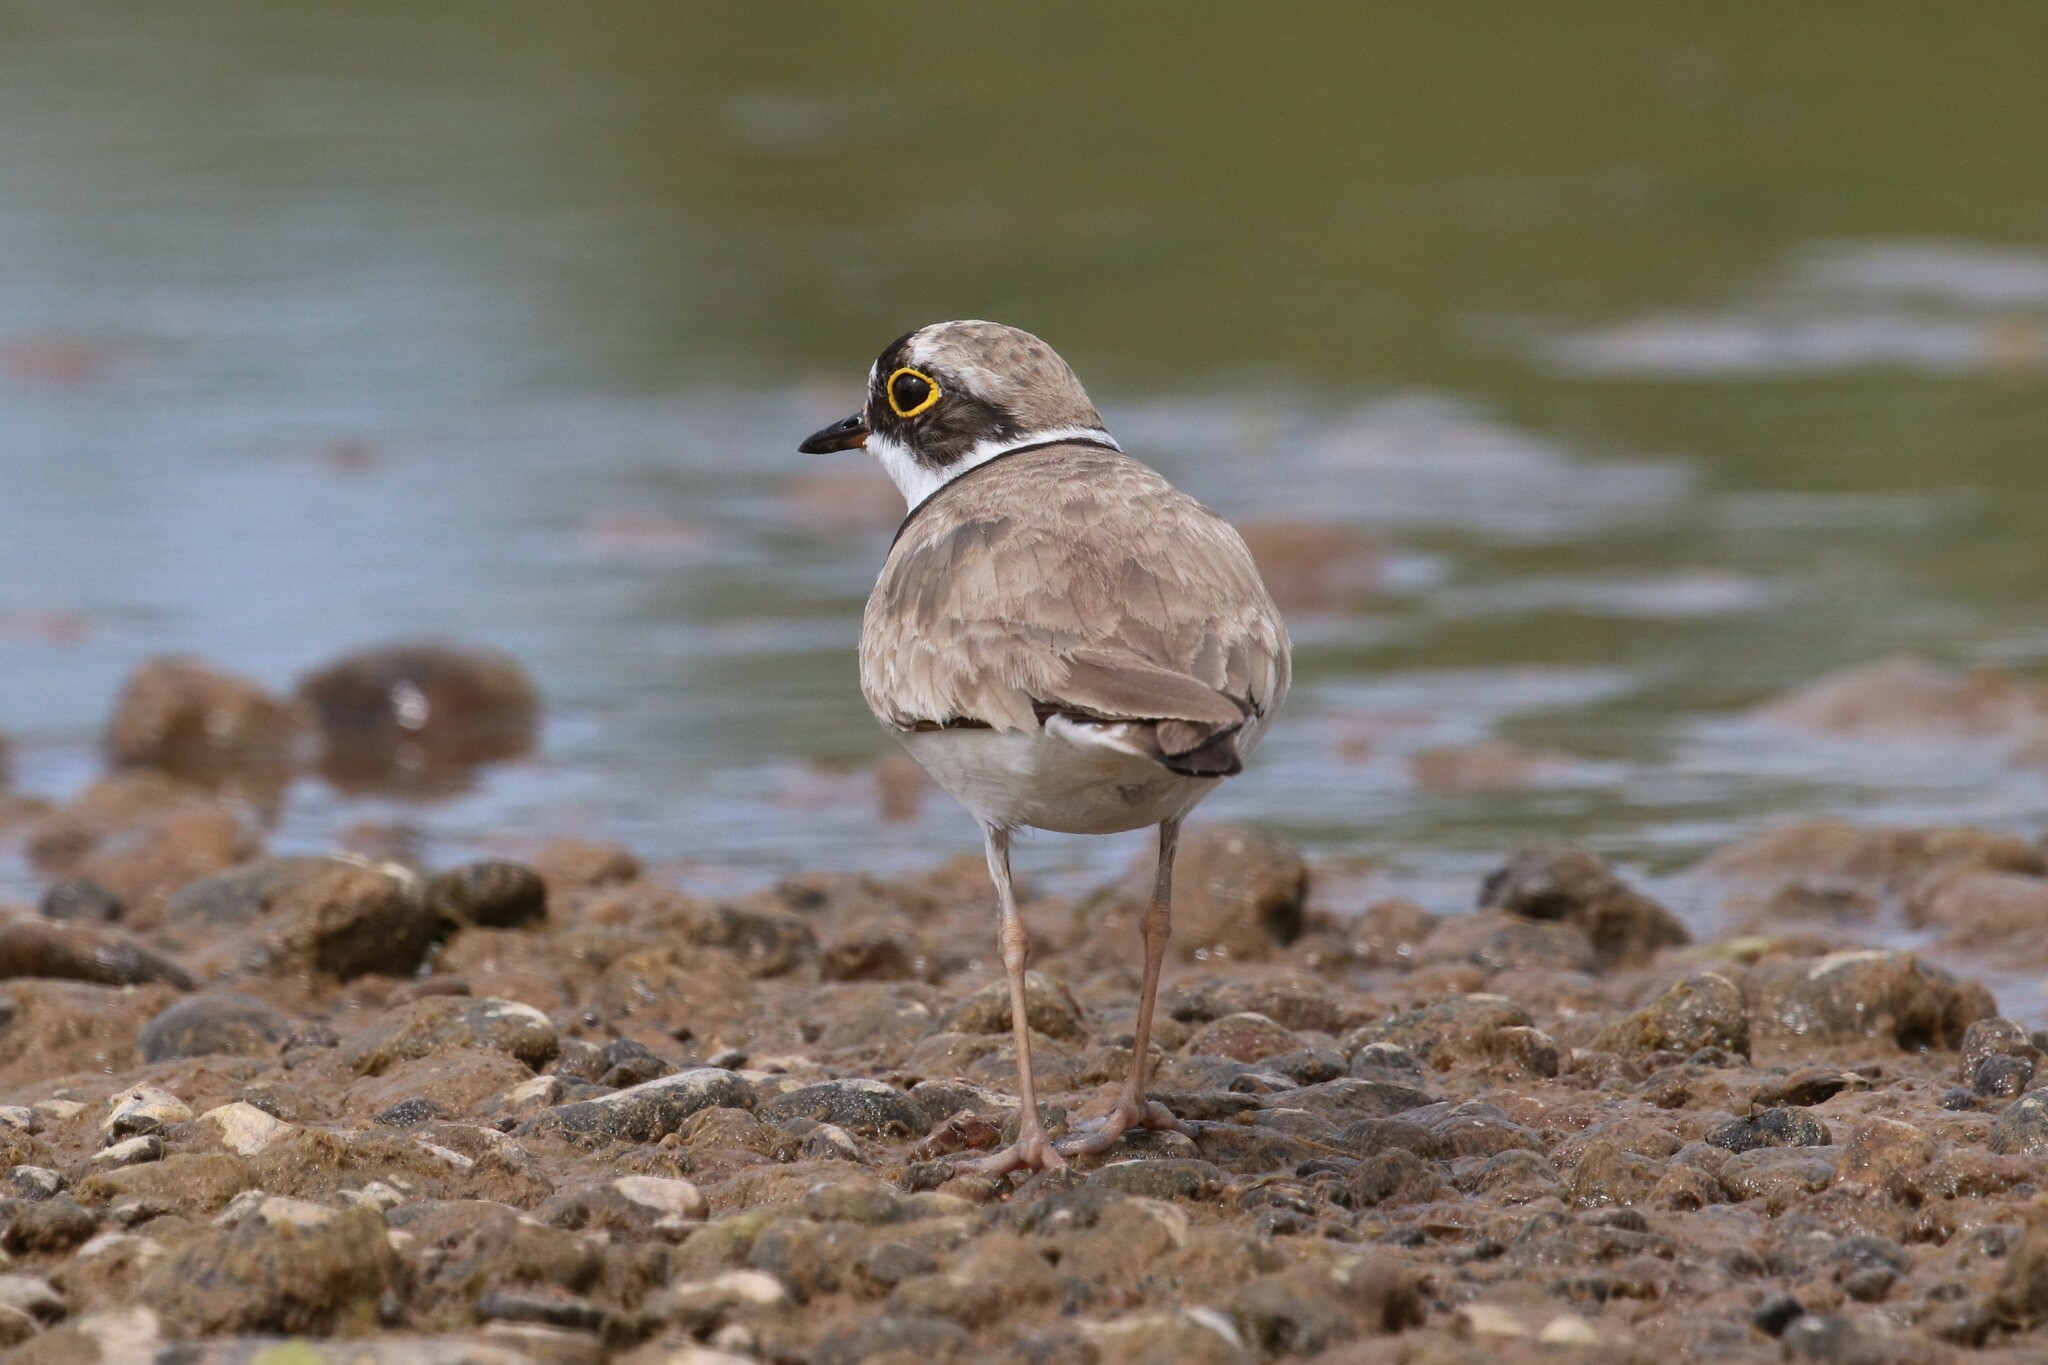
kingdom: Animalia
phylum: Chordata
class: Aves
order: Charadriiformes
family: Charadriidae
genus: Charadrius
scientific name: Charadrius dubius
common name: Little ringed plover
